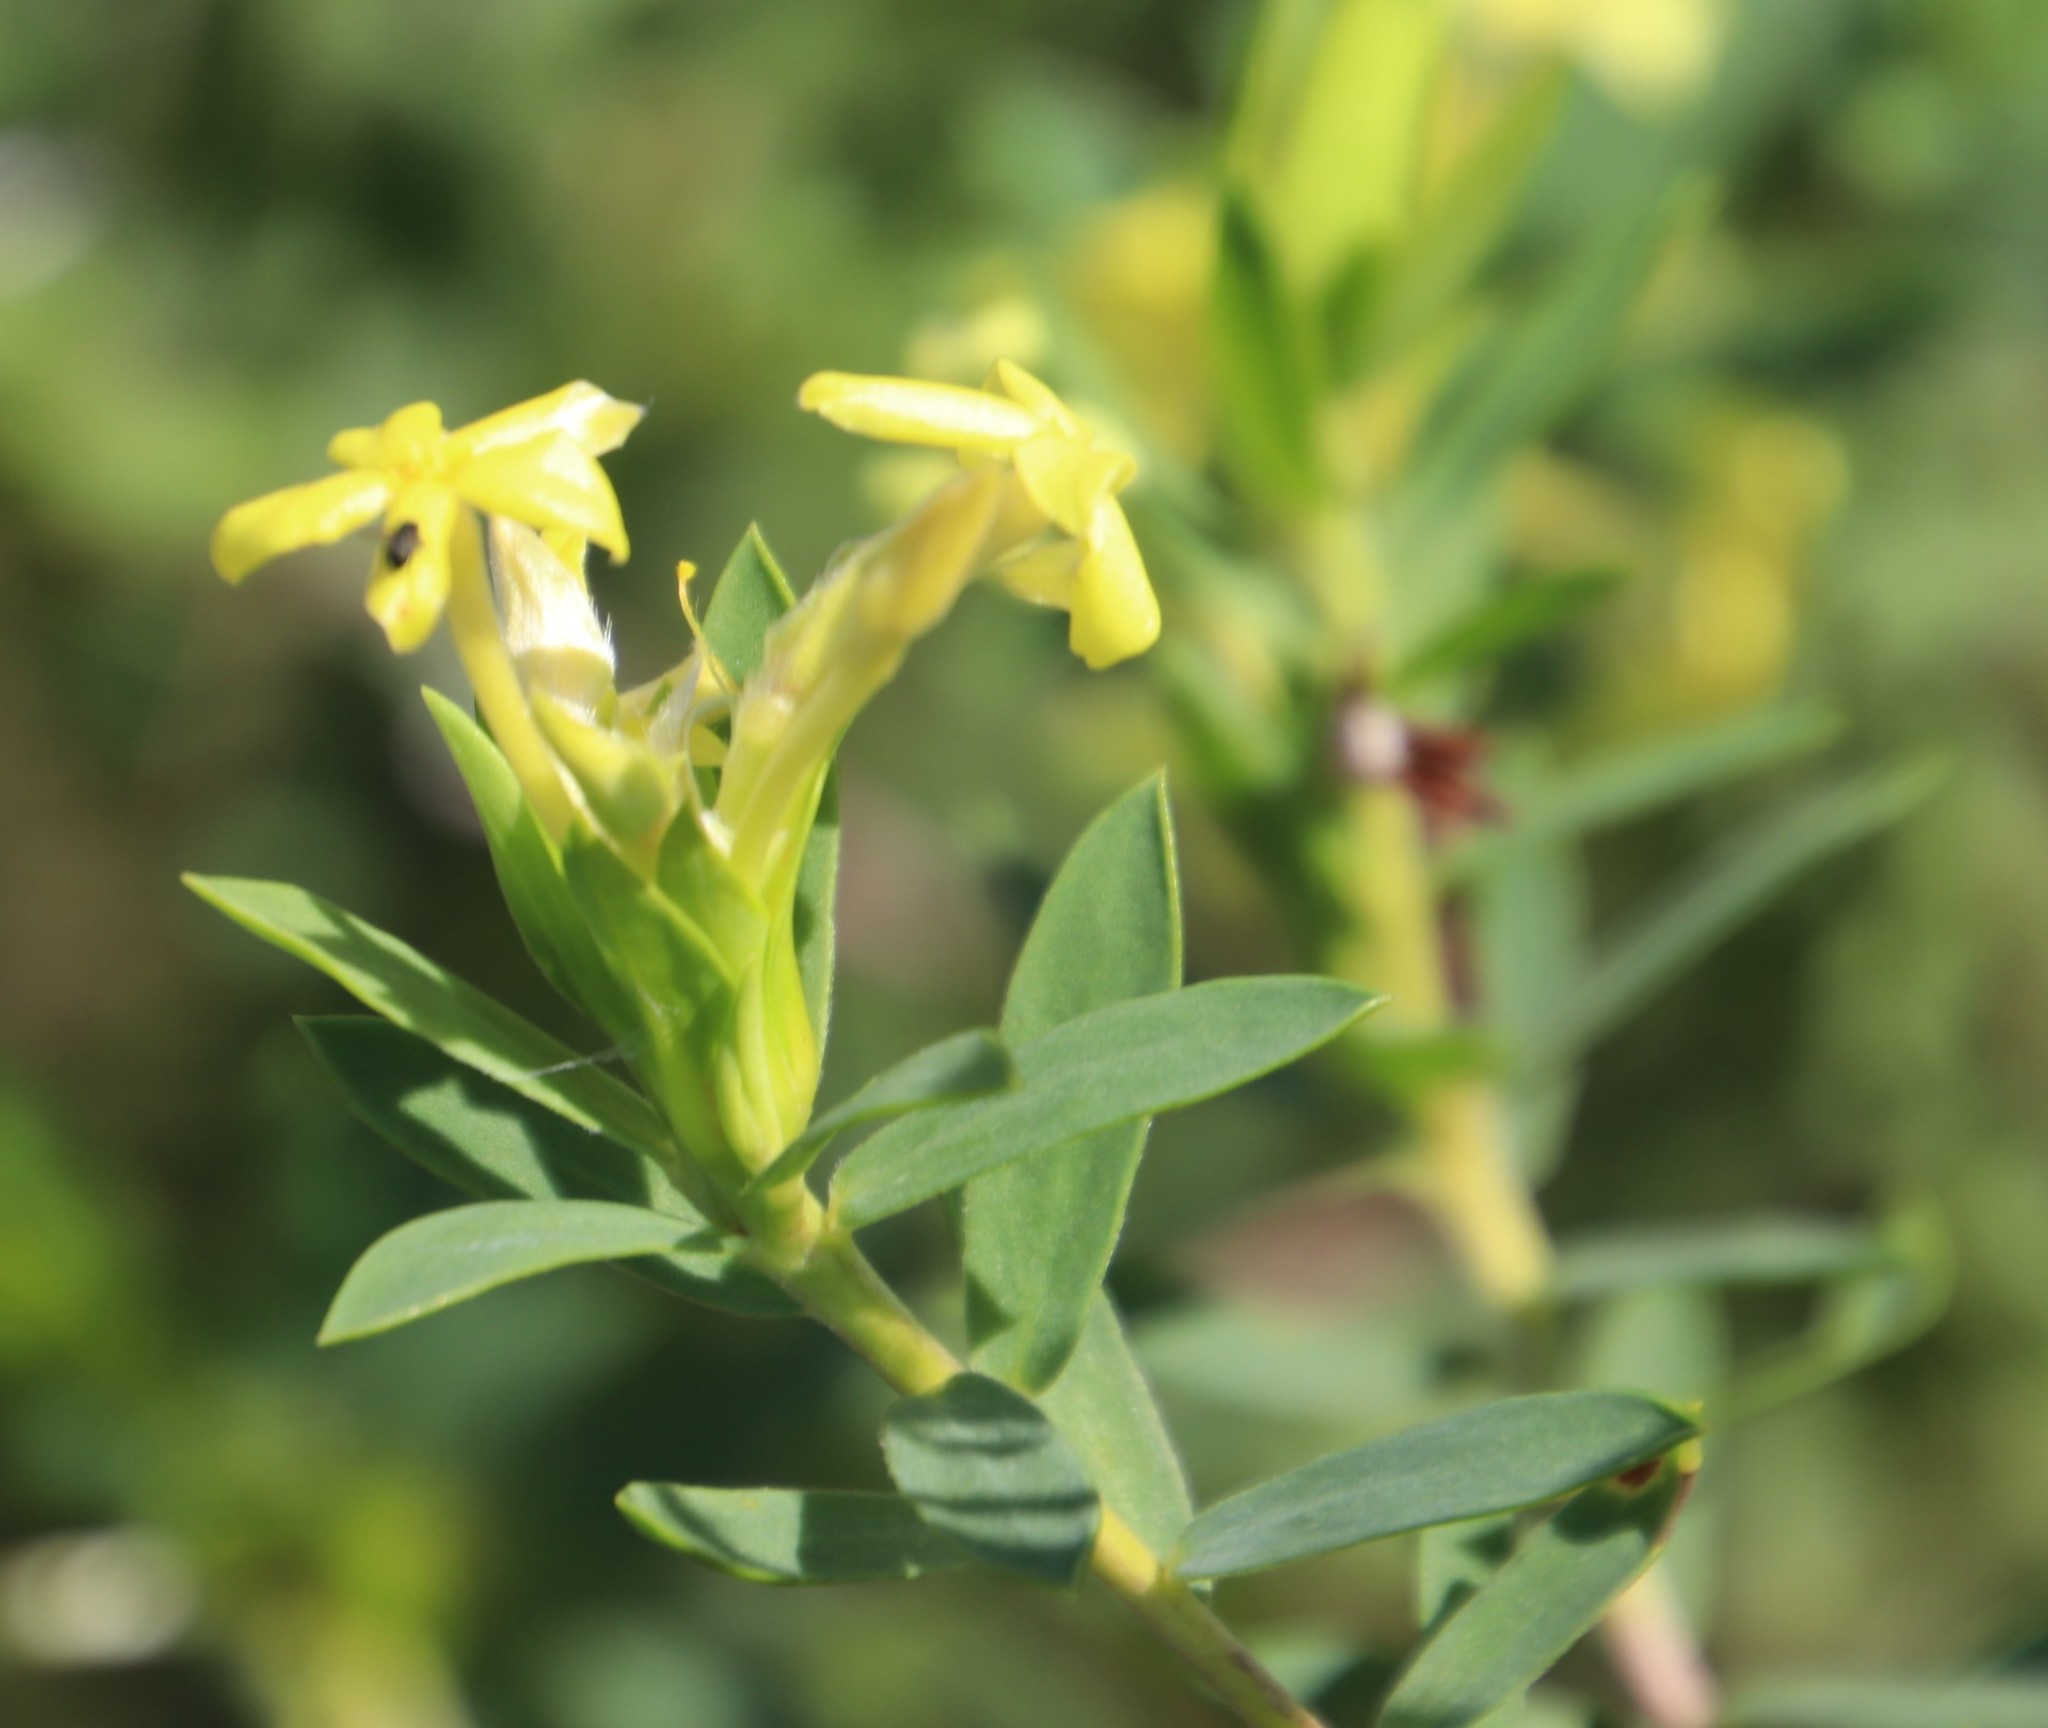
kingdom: Plantae
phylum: Tracheophyta
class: Magnoliopsida
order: Malvales
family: Thymelaeaceae
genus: Gnidia
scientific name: Gnidia triplinervis
